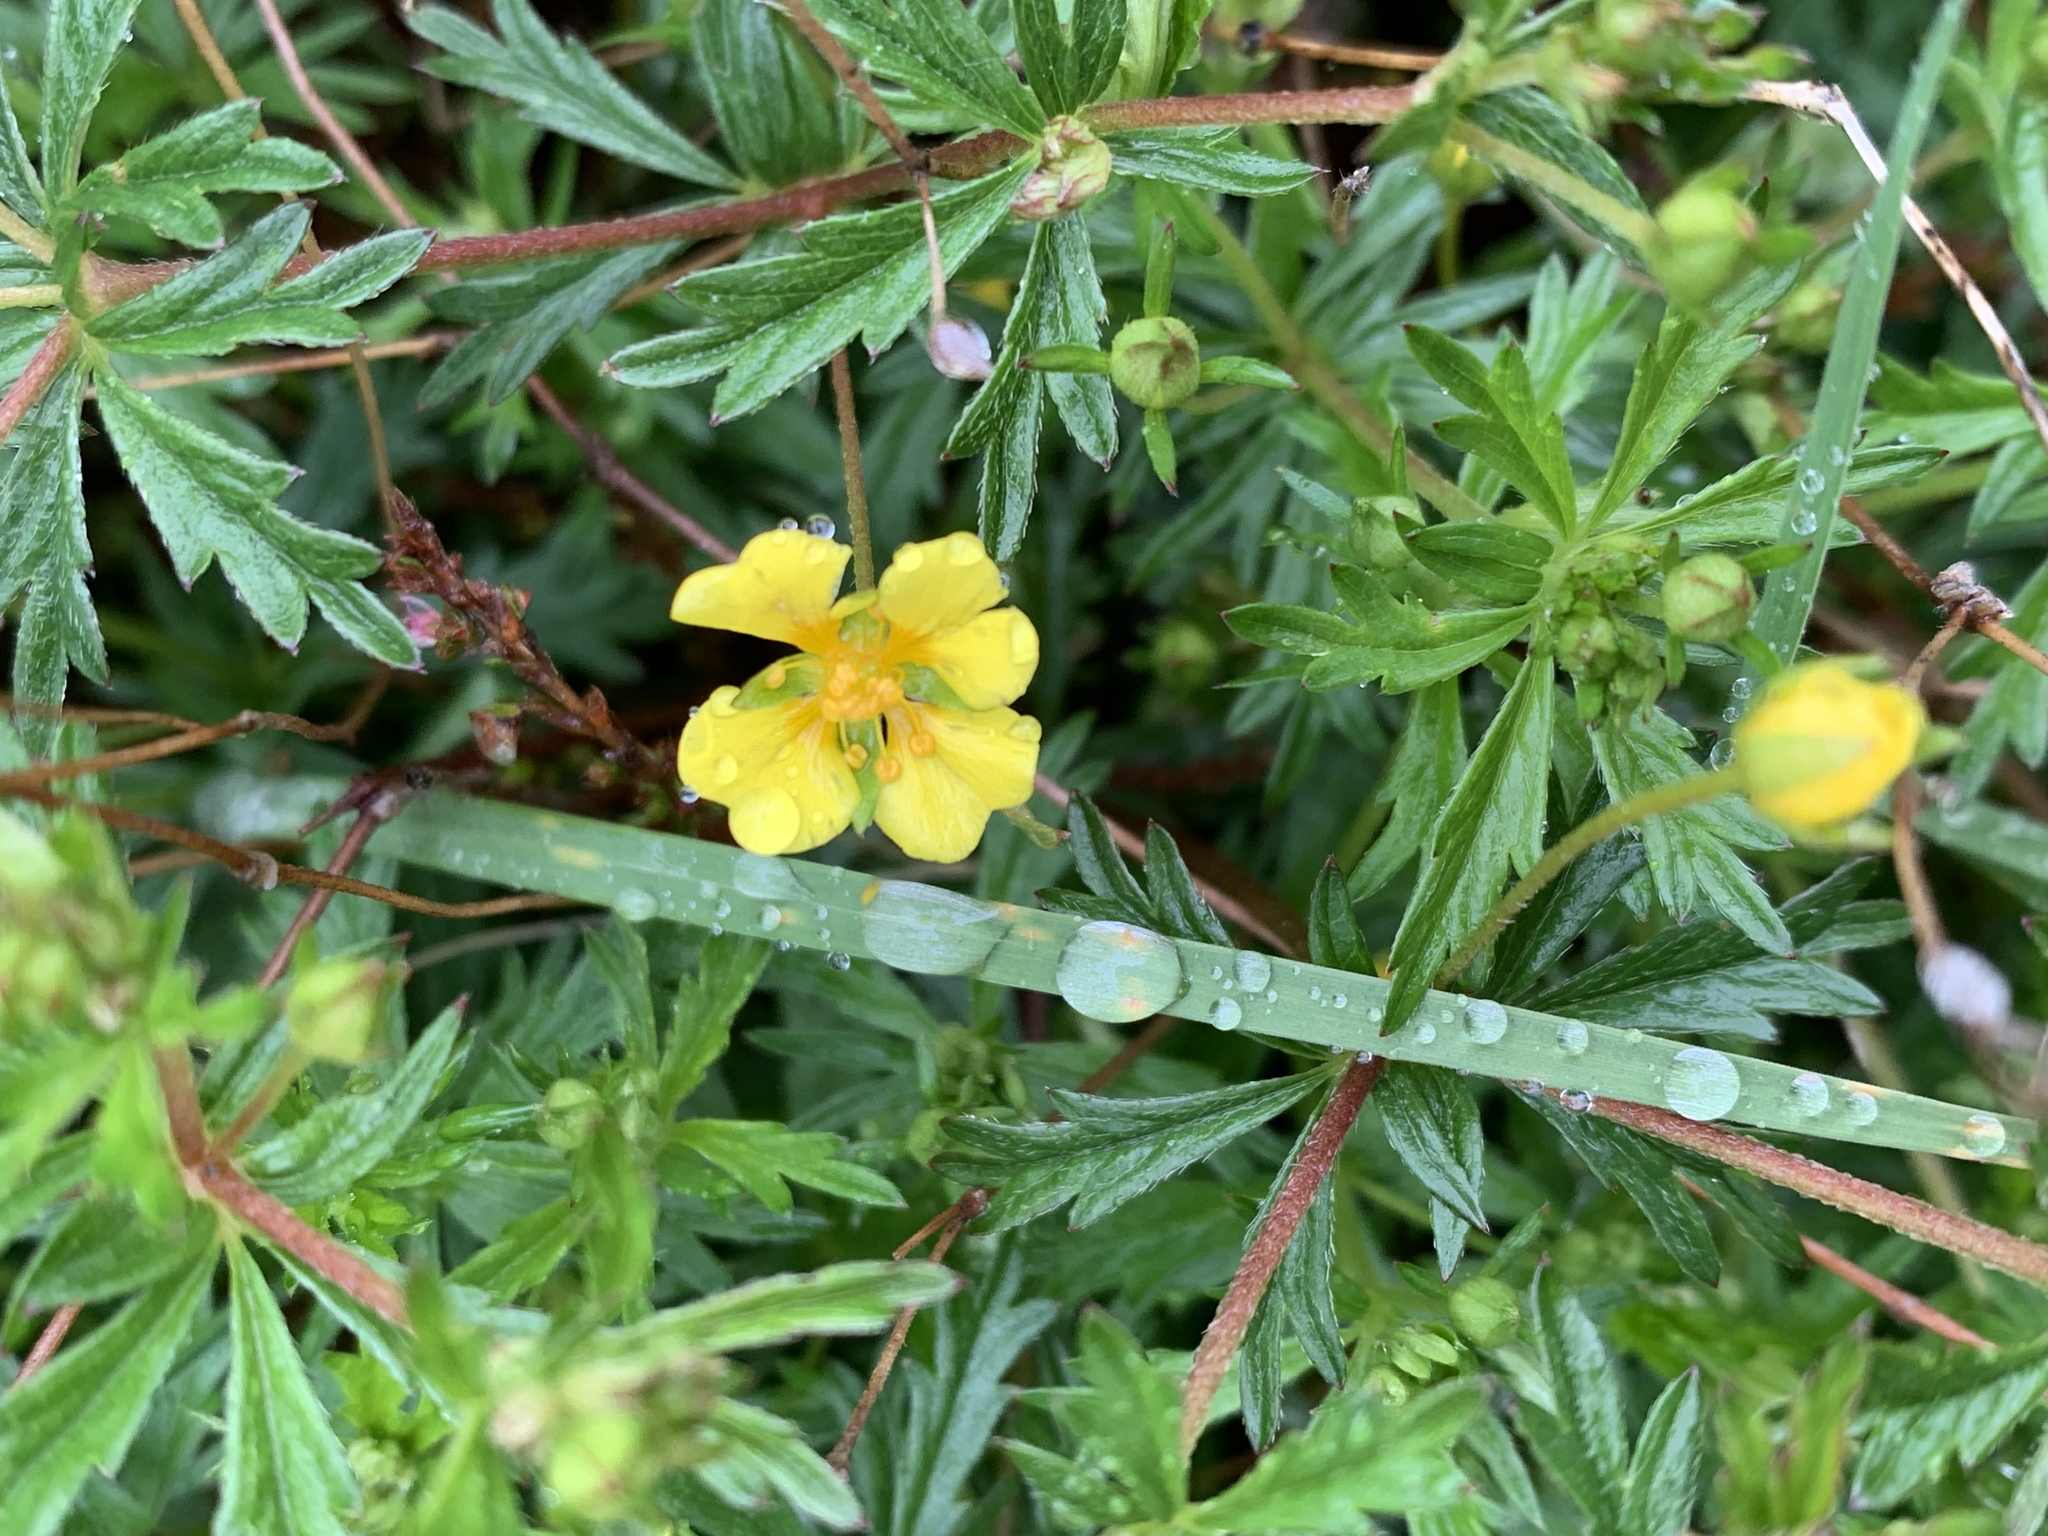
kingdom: Plantae
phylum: Tracheophyta
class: Magnoliopsida
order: Rosales
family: Rosaceae
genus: Potentilla
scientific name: Potentilla erecta
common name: Tormentil
